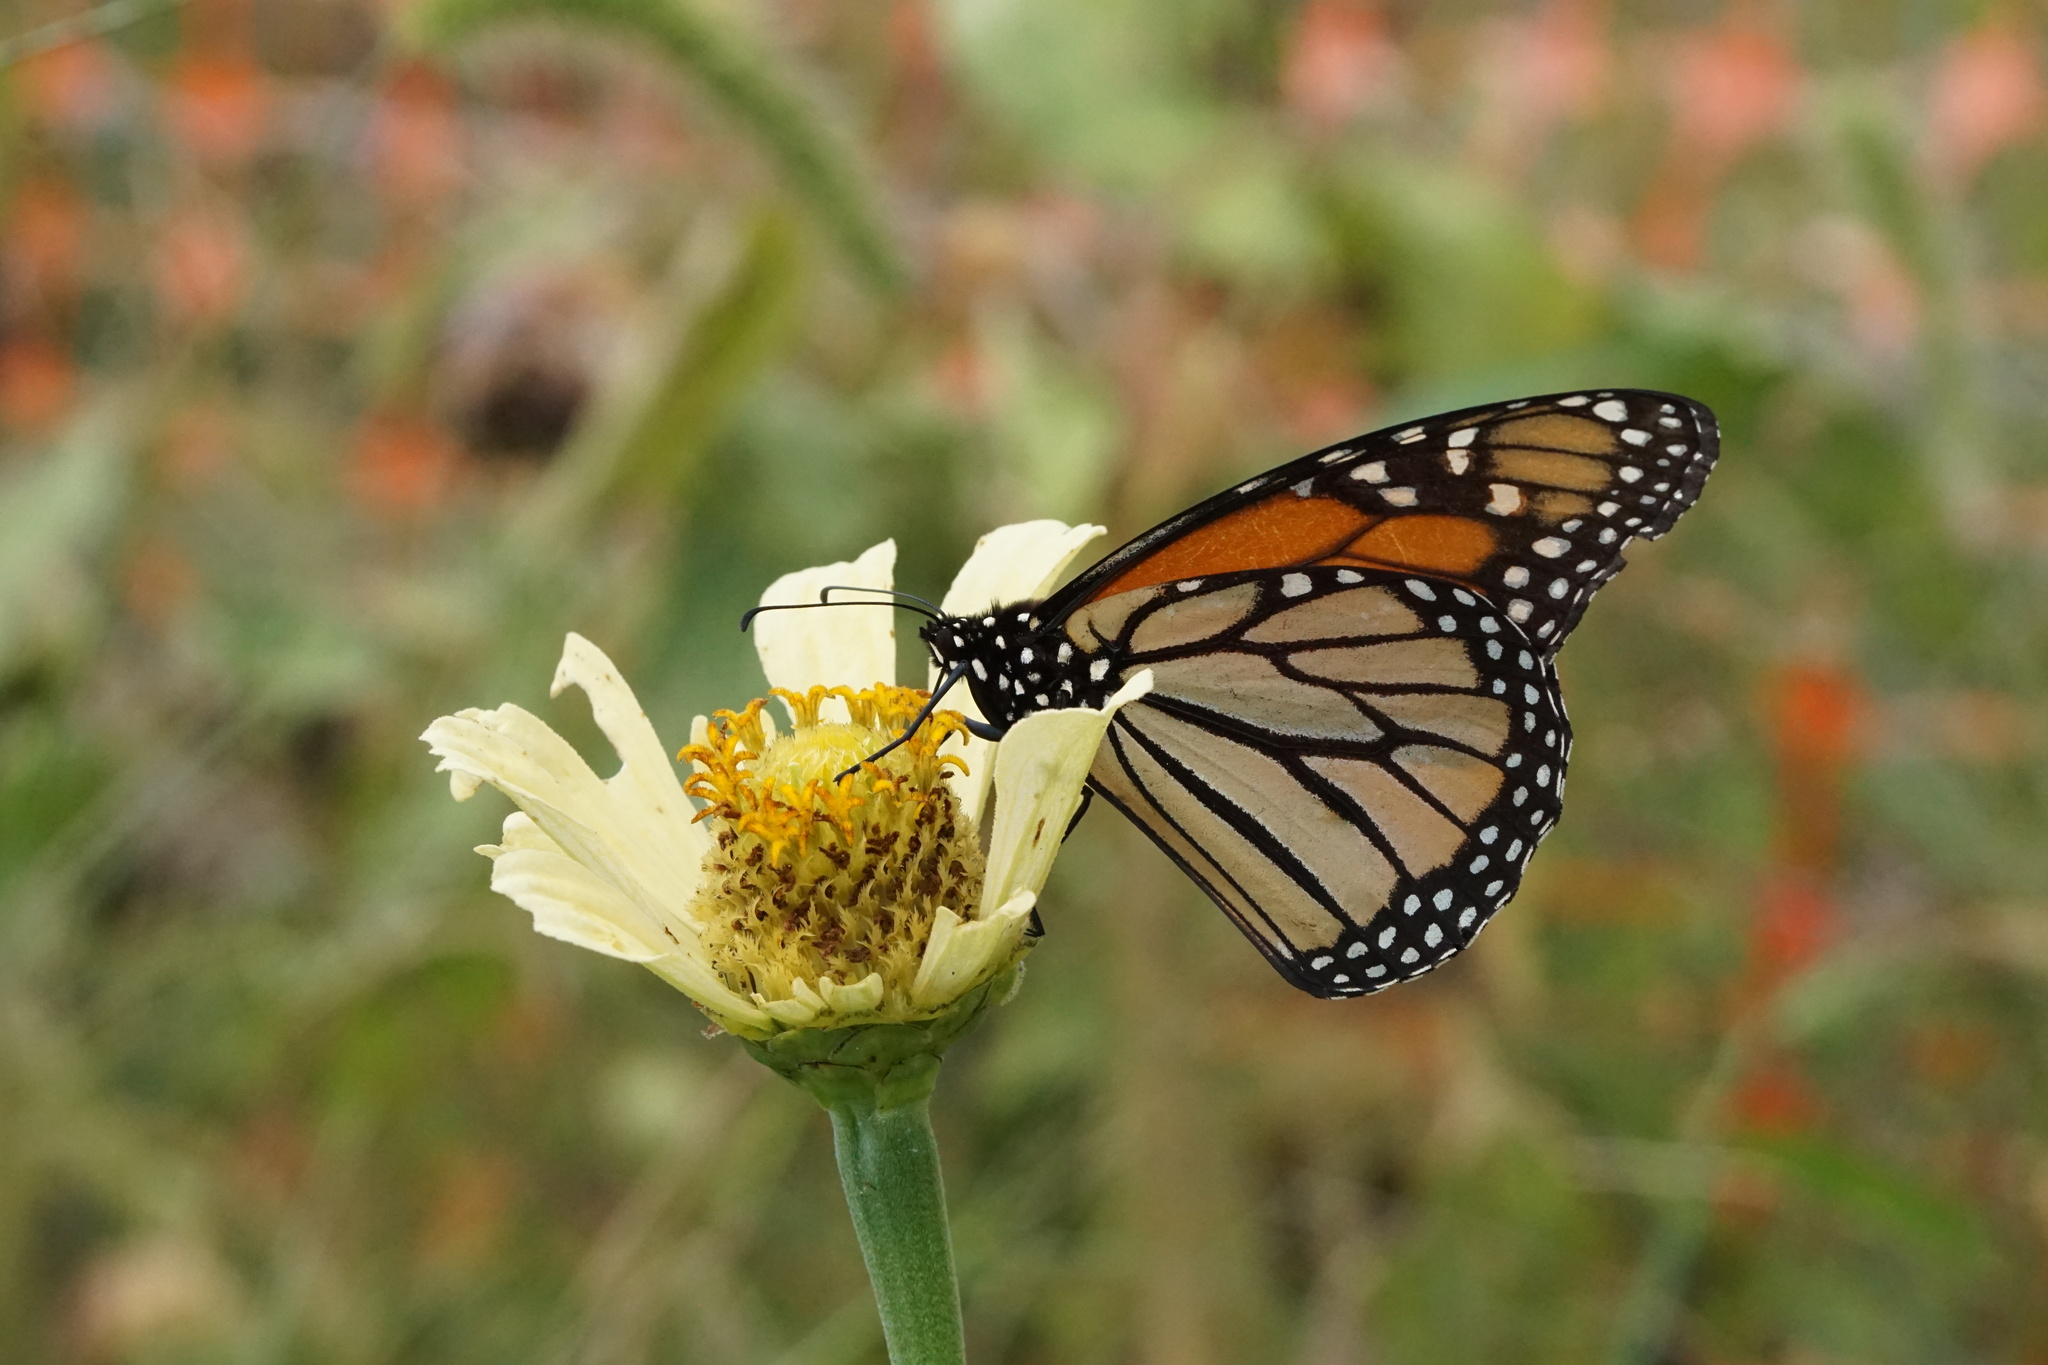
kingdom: Animalia
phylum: Arthropoda
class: Insecta
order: Lepidoptera
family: Nymphalidae
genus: Danaus
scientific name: Danaus plexippus
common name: Monarch
